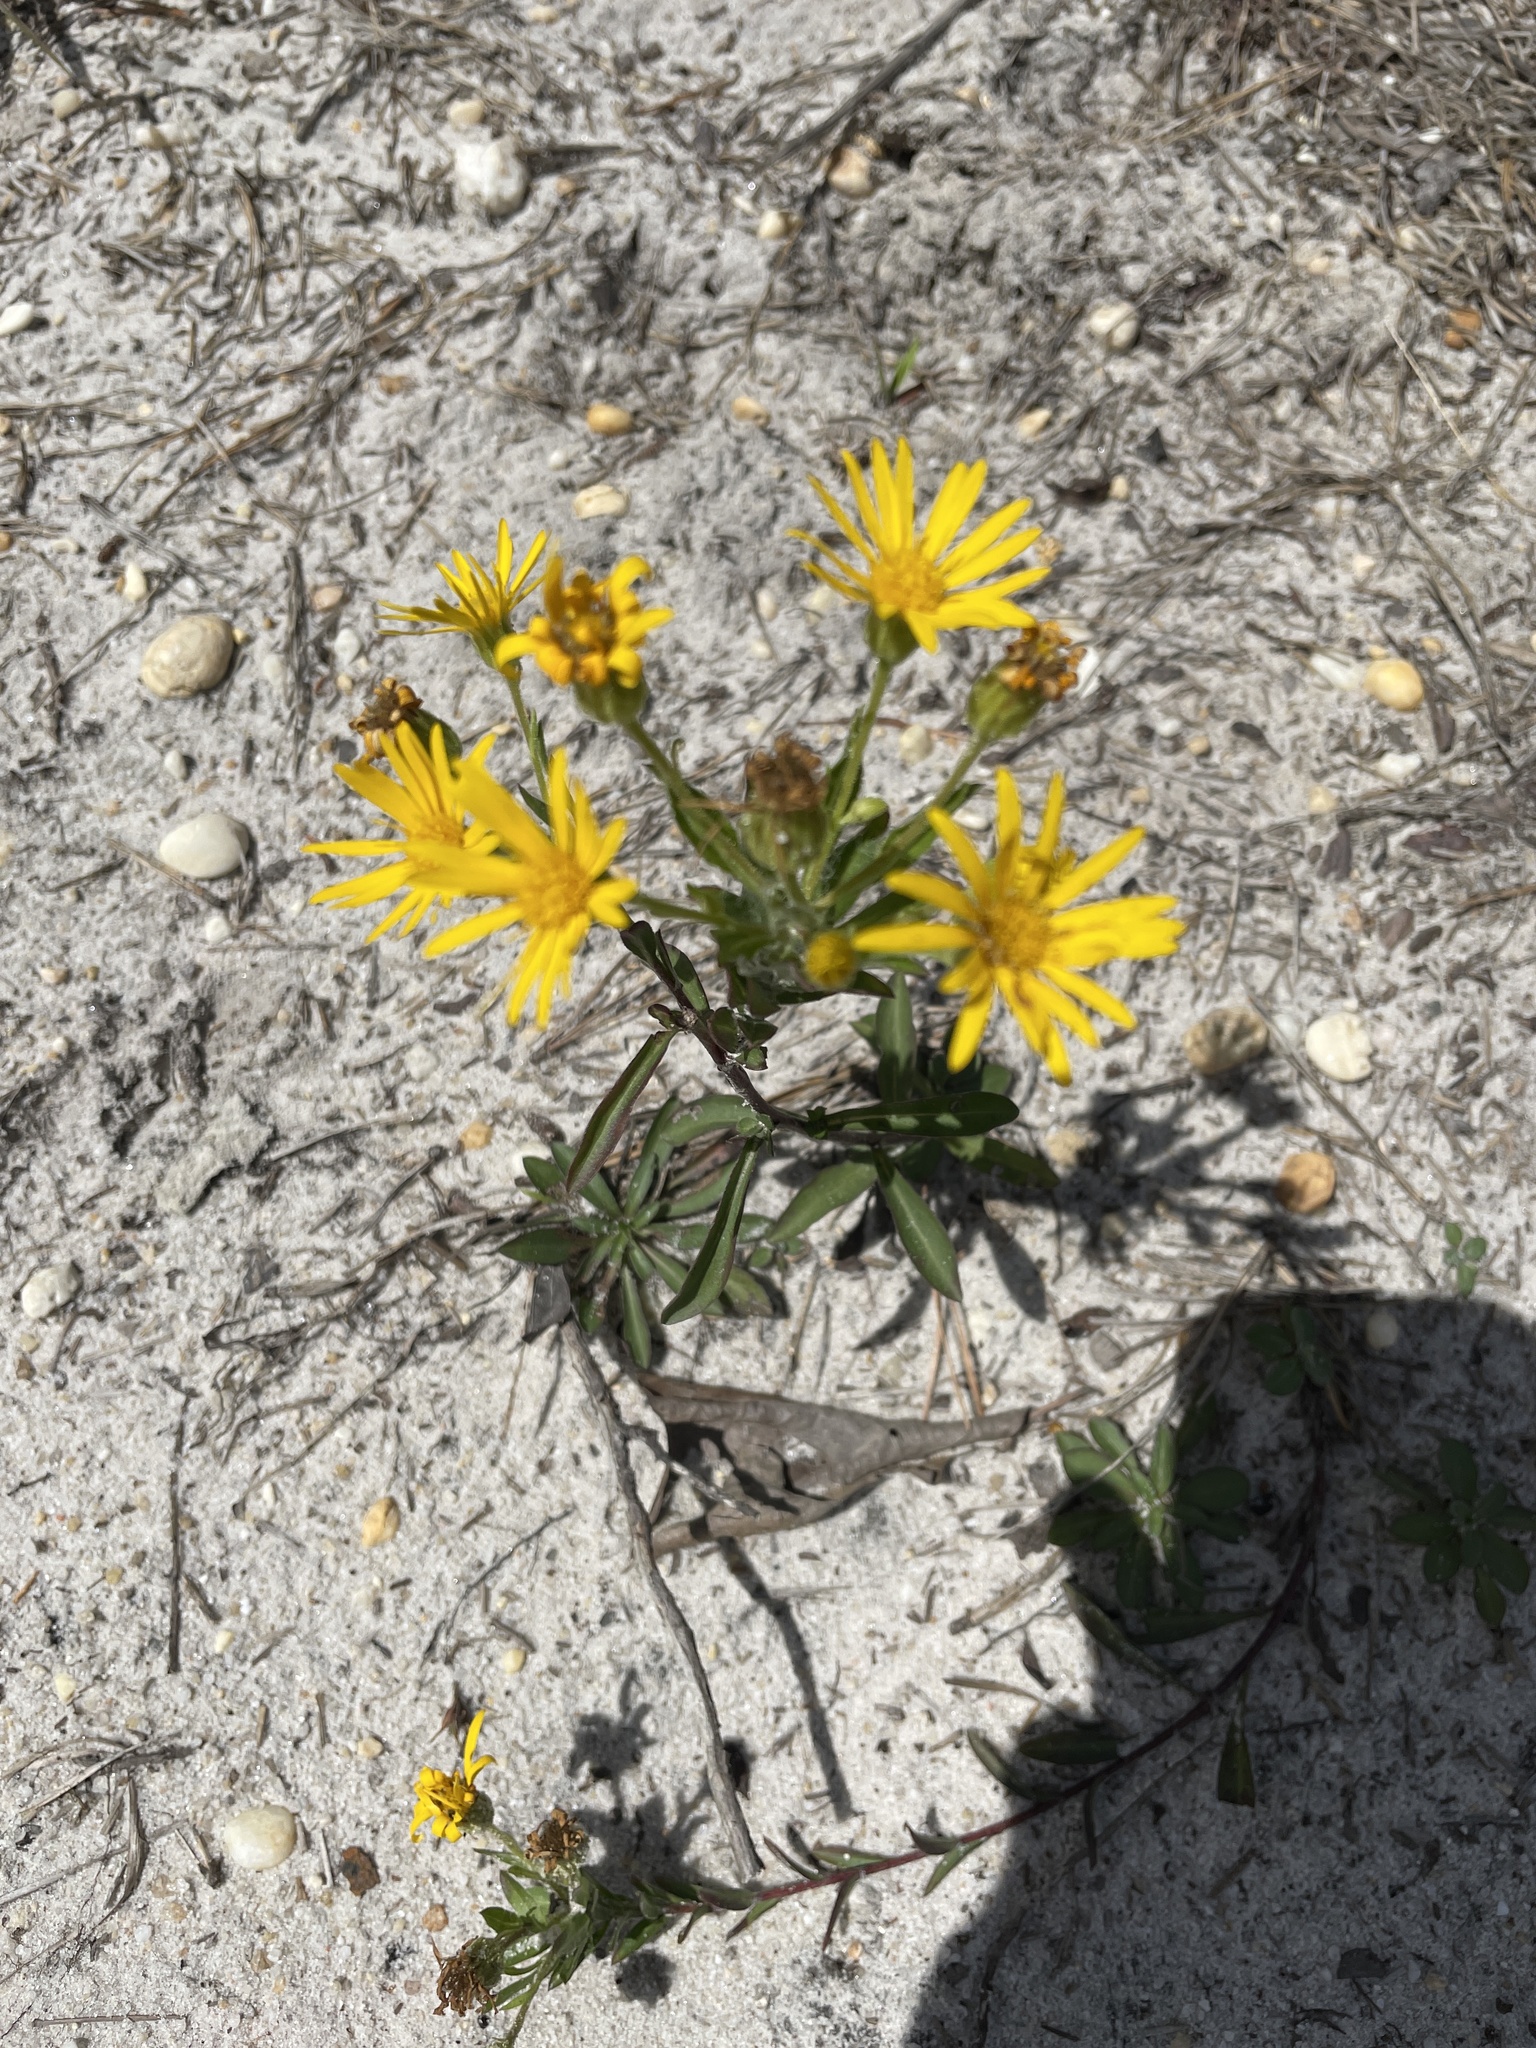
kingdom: Plantae
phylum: Tracheophyta
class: Magnoliopsida
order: Asterales
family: Asteraceae
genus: Chrysopsis
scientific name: Chrysopsis mariana
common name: Maryland golden-aster
